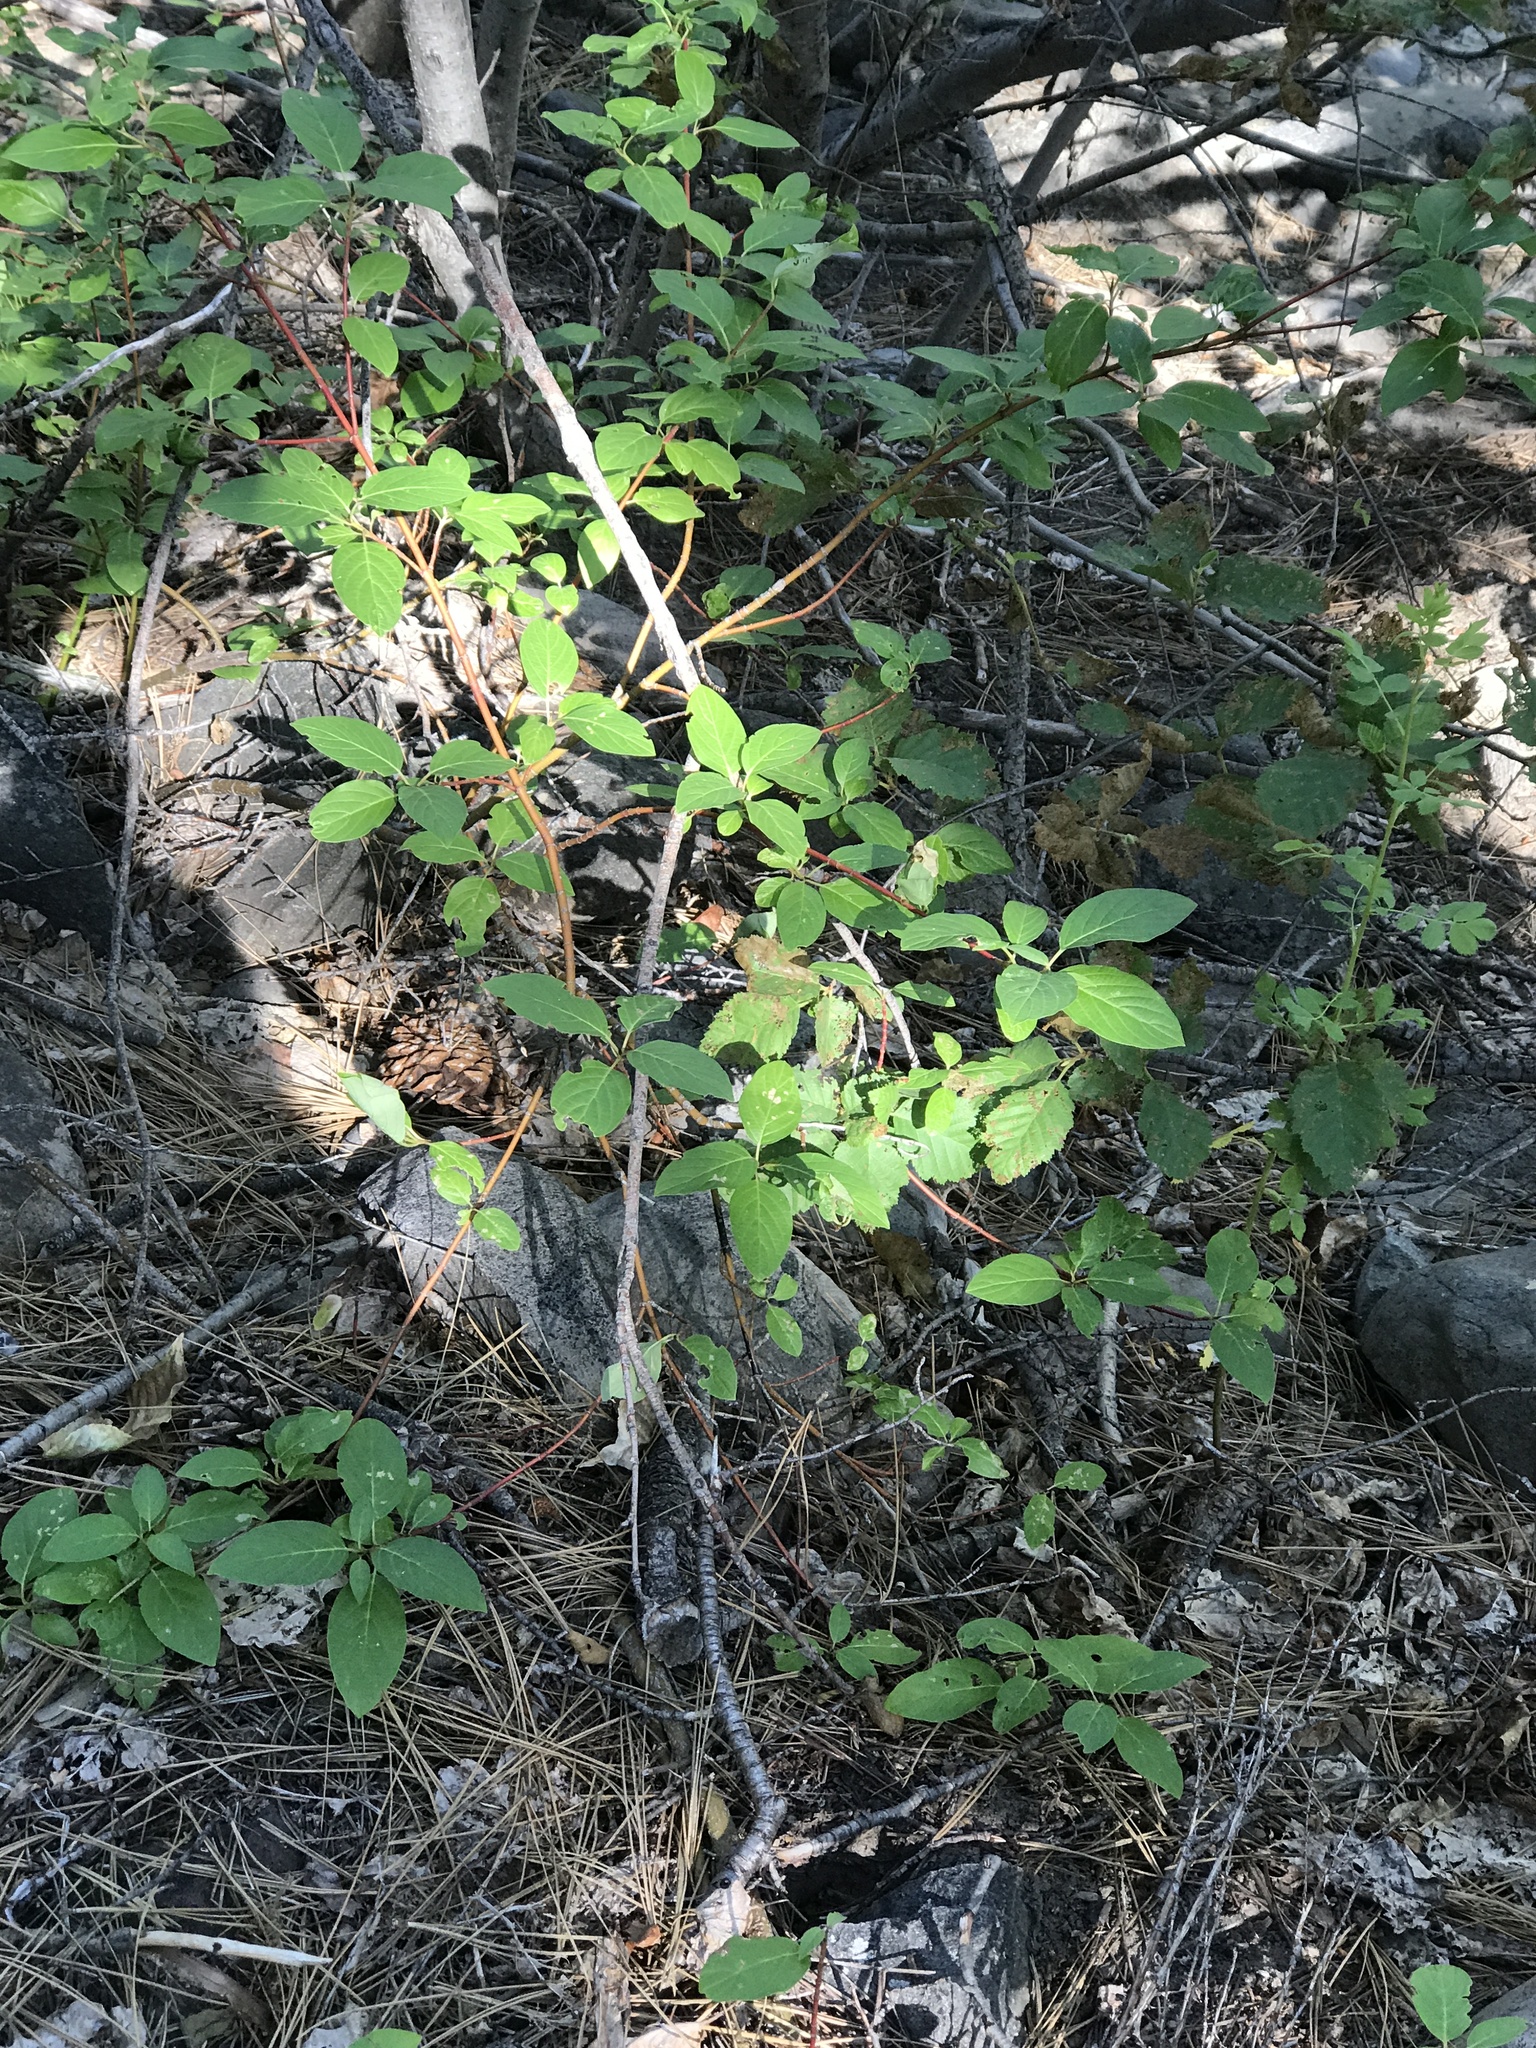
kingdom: Plantae
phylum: Tracheophyta
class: Magnoliopsida
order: Cornales
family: Cornaceae
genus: Cornus
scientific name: Cornus sericea
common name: Red-osier dogwood
